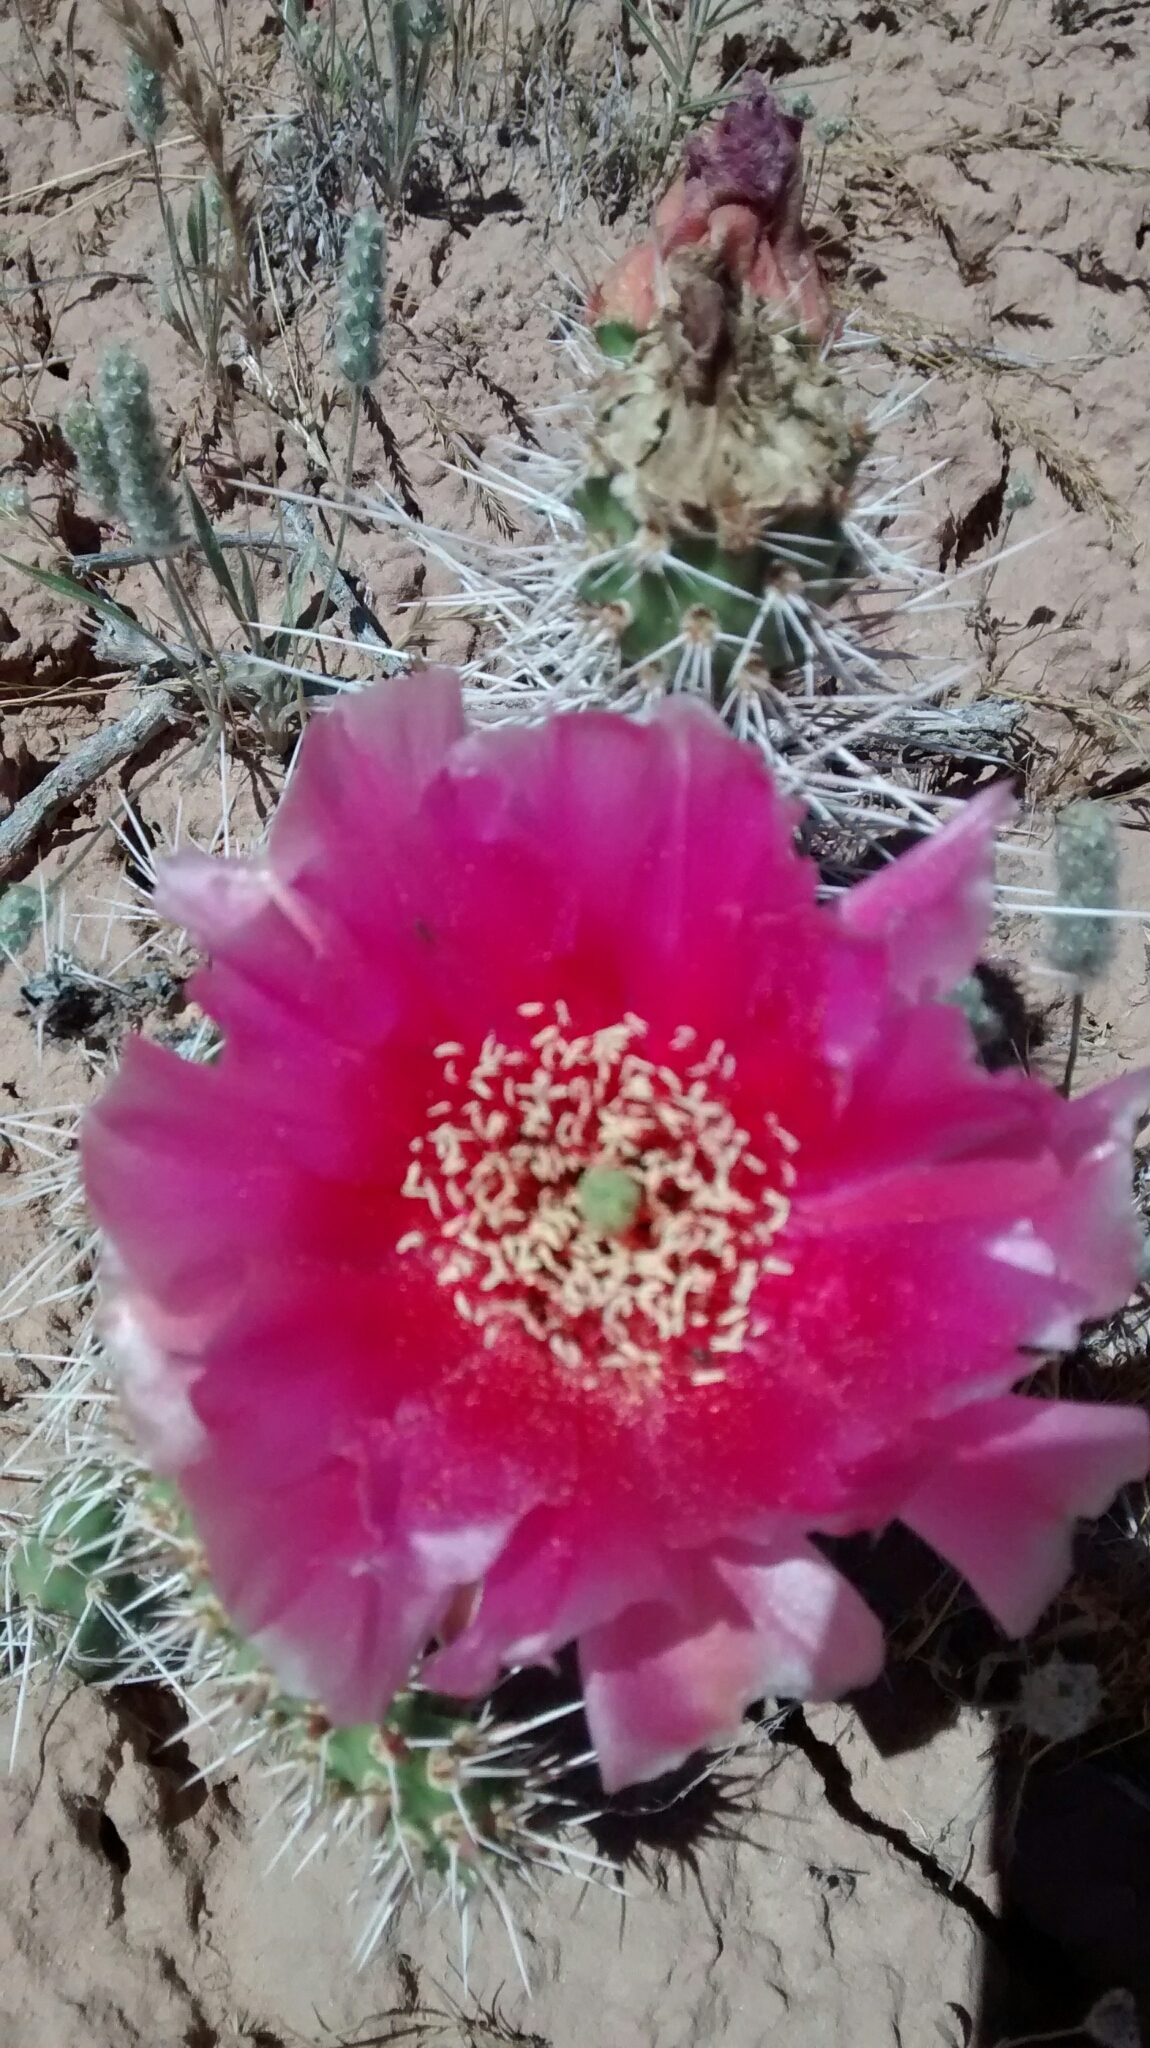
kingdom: Plantae
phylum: Tracheophyta
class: Magnoliopsida
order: Caryophyllales
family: Cactaceae
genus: Opuntia
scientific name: Opuntia polyacantha
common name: Plains prickly-pear
